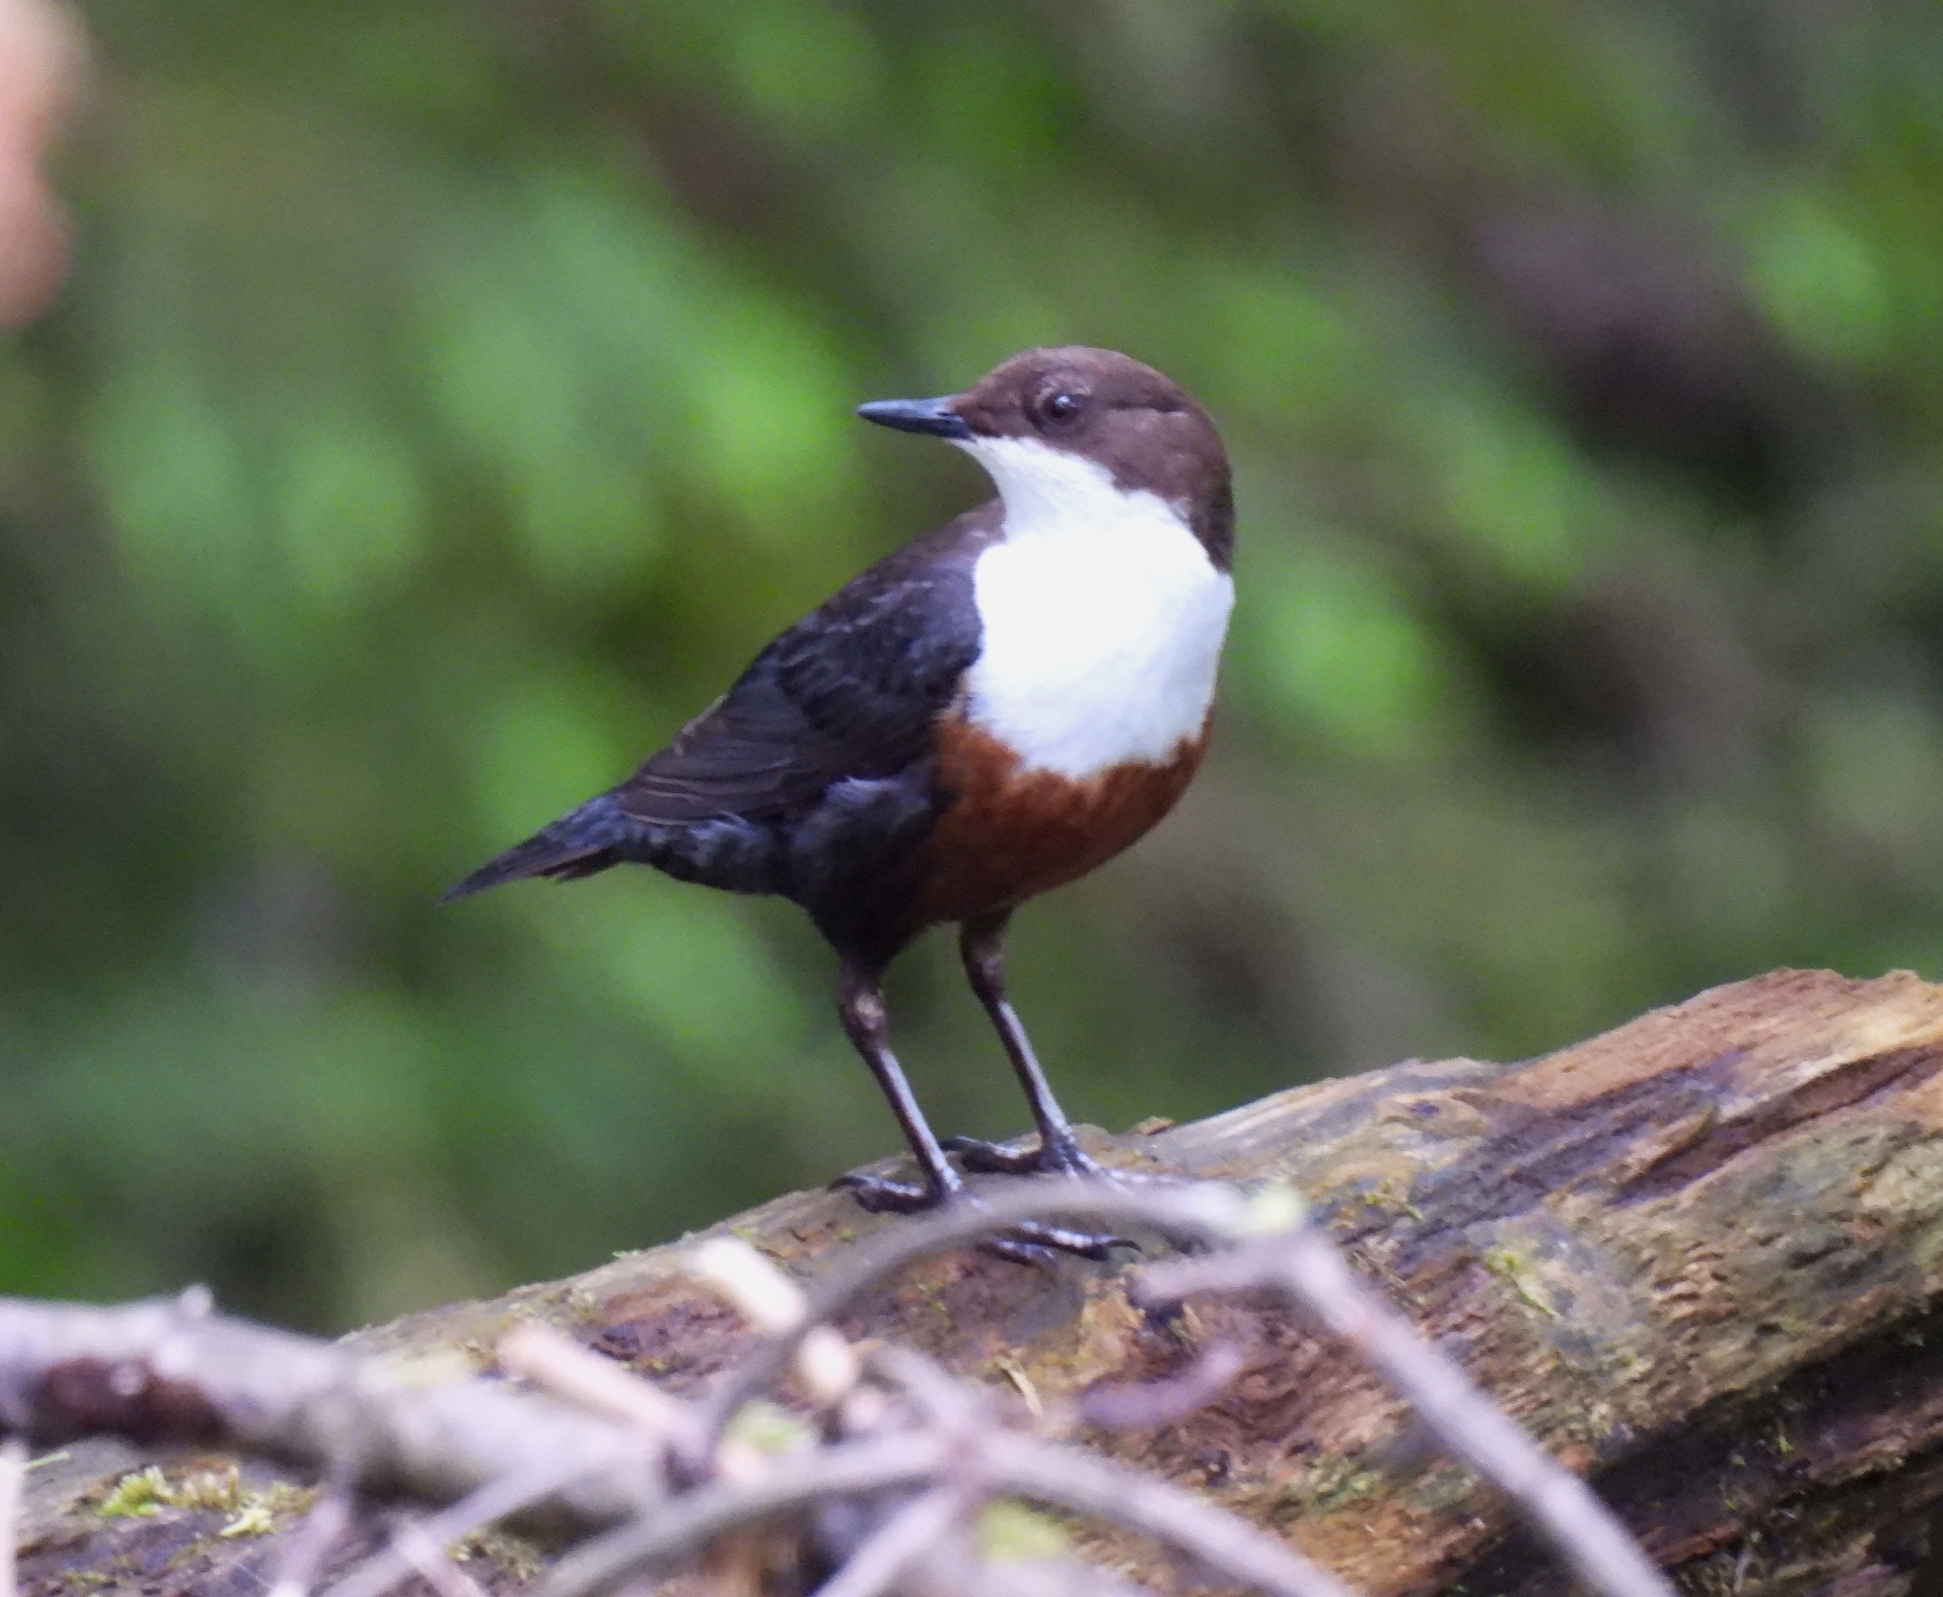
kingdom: Animalia
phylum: Chordata
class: Aves
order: Passeriformes
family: Cinclidae
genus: Cinclus
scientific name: Cinclus cinclus
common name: White-throated dipper
